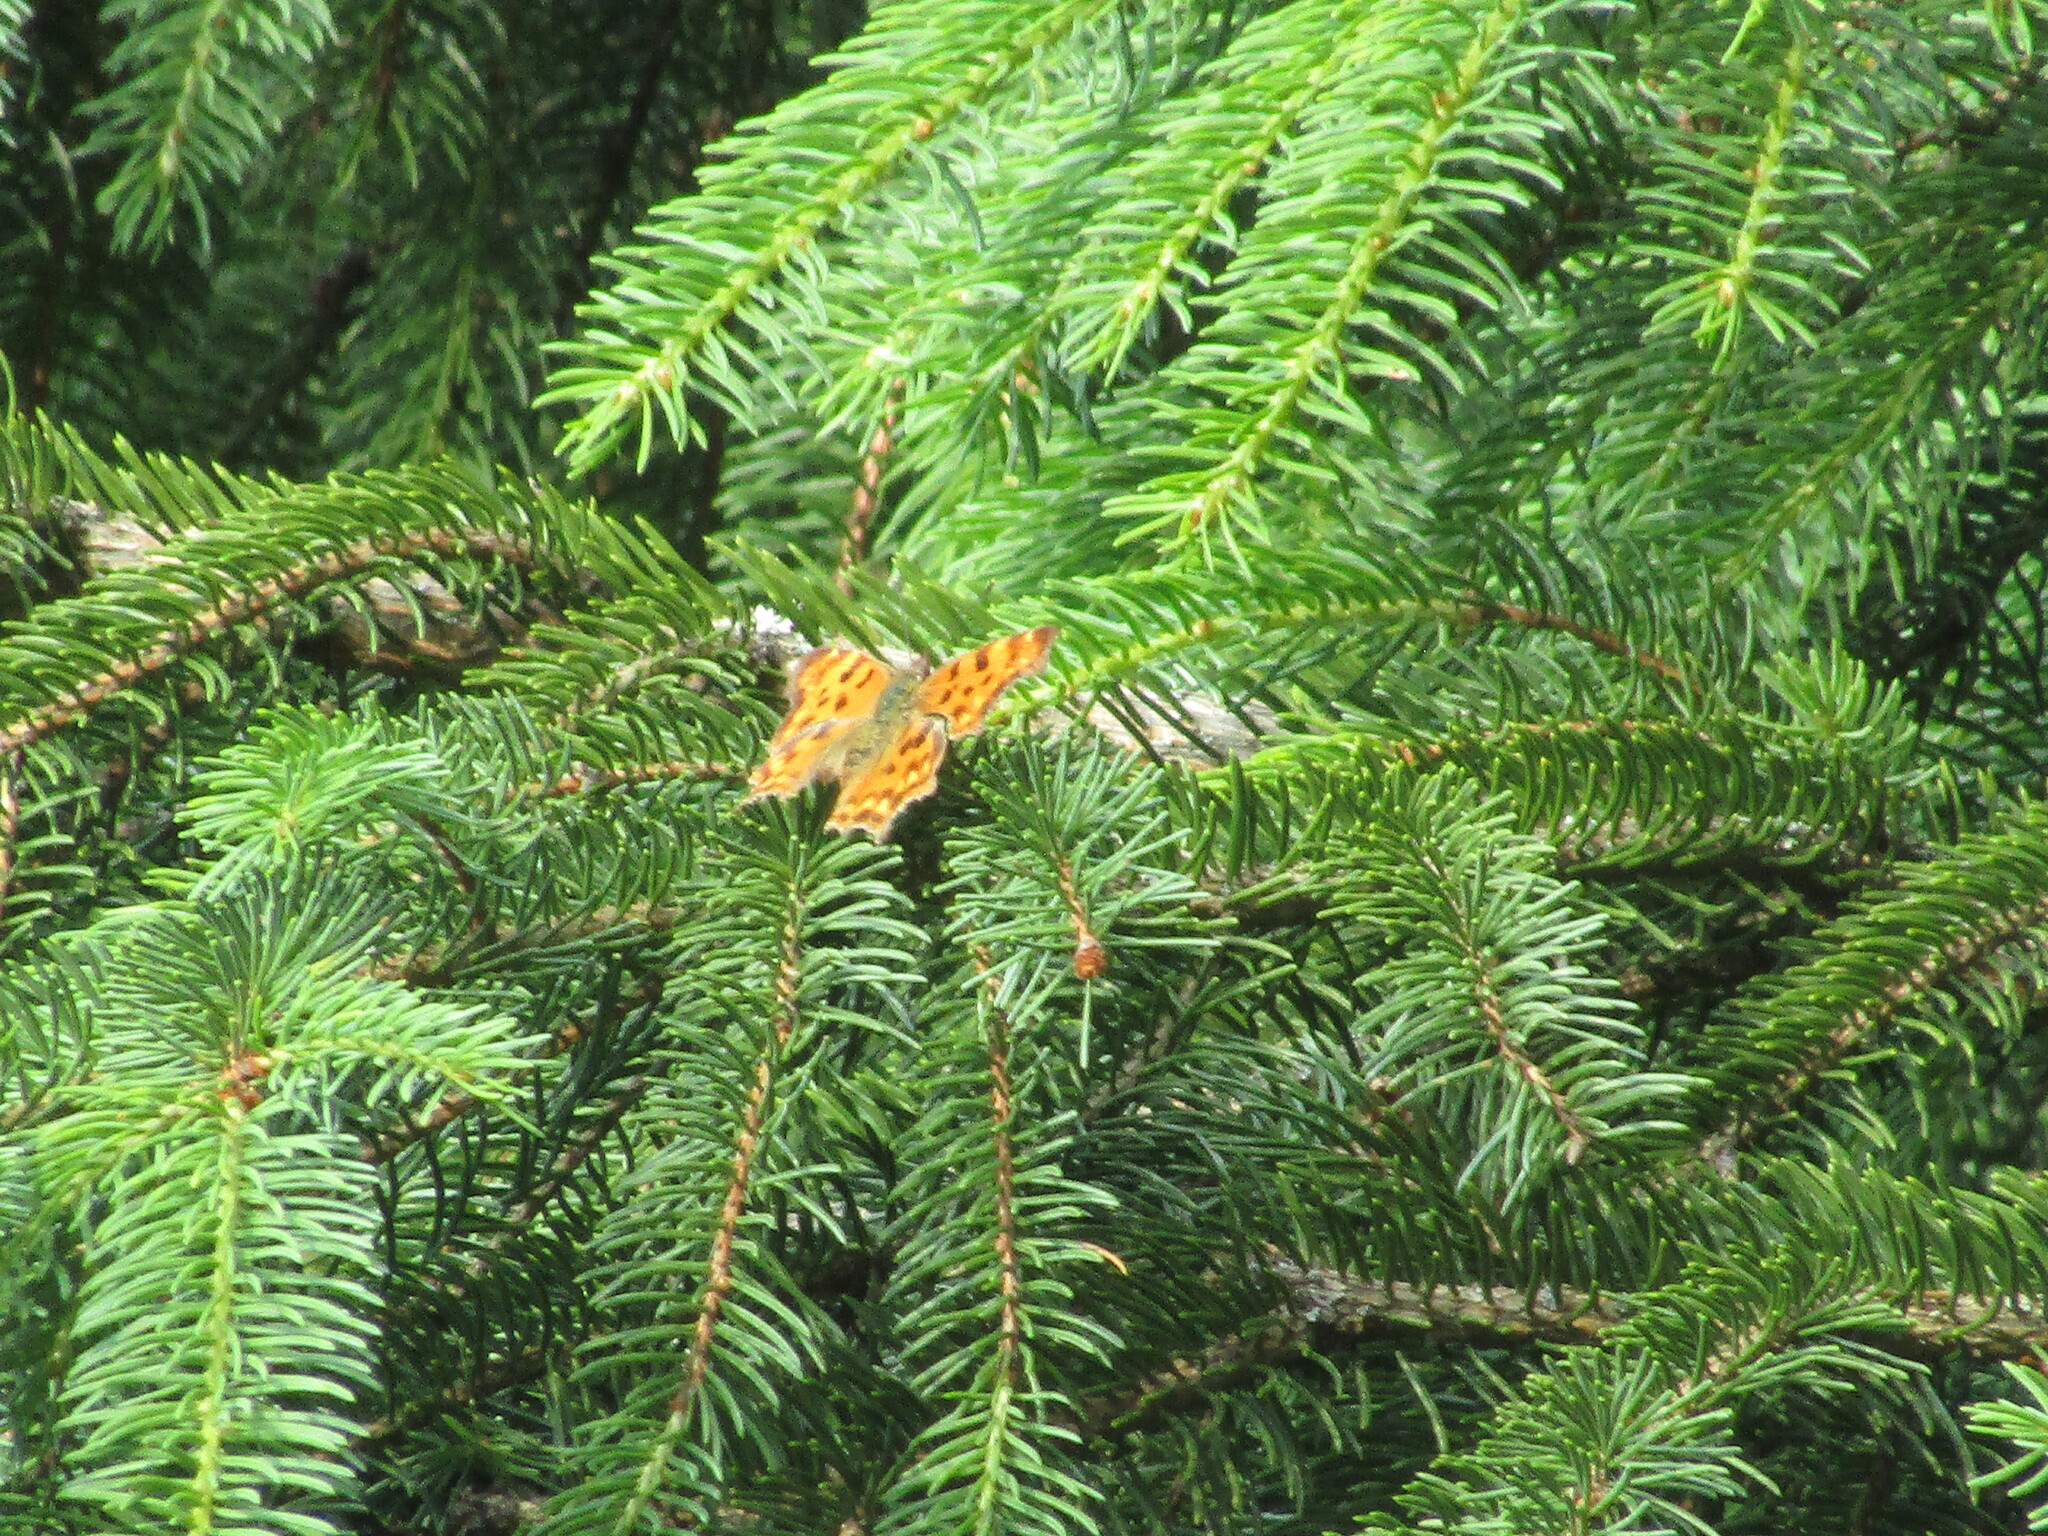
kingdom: Animalia
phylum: Arthropoda
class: Insecta
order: Lepidoptera
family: Nymphalidae
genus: Polygonia
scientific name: Polygonia c-album
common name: Comma
